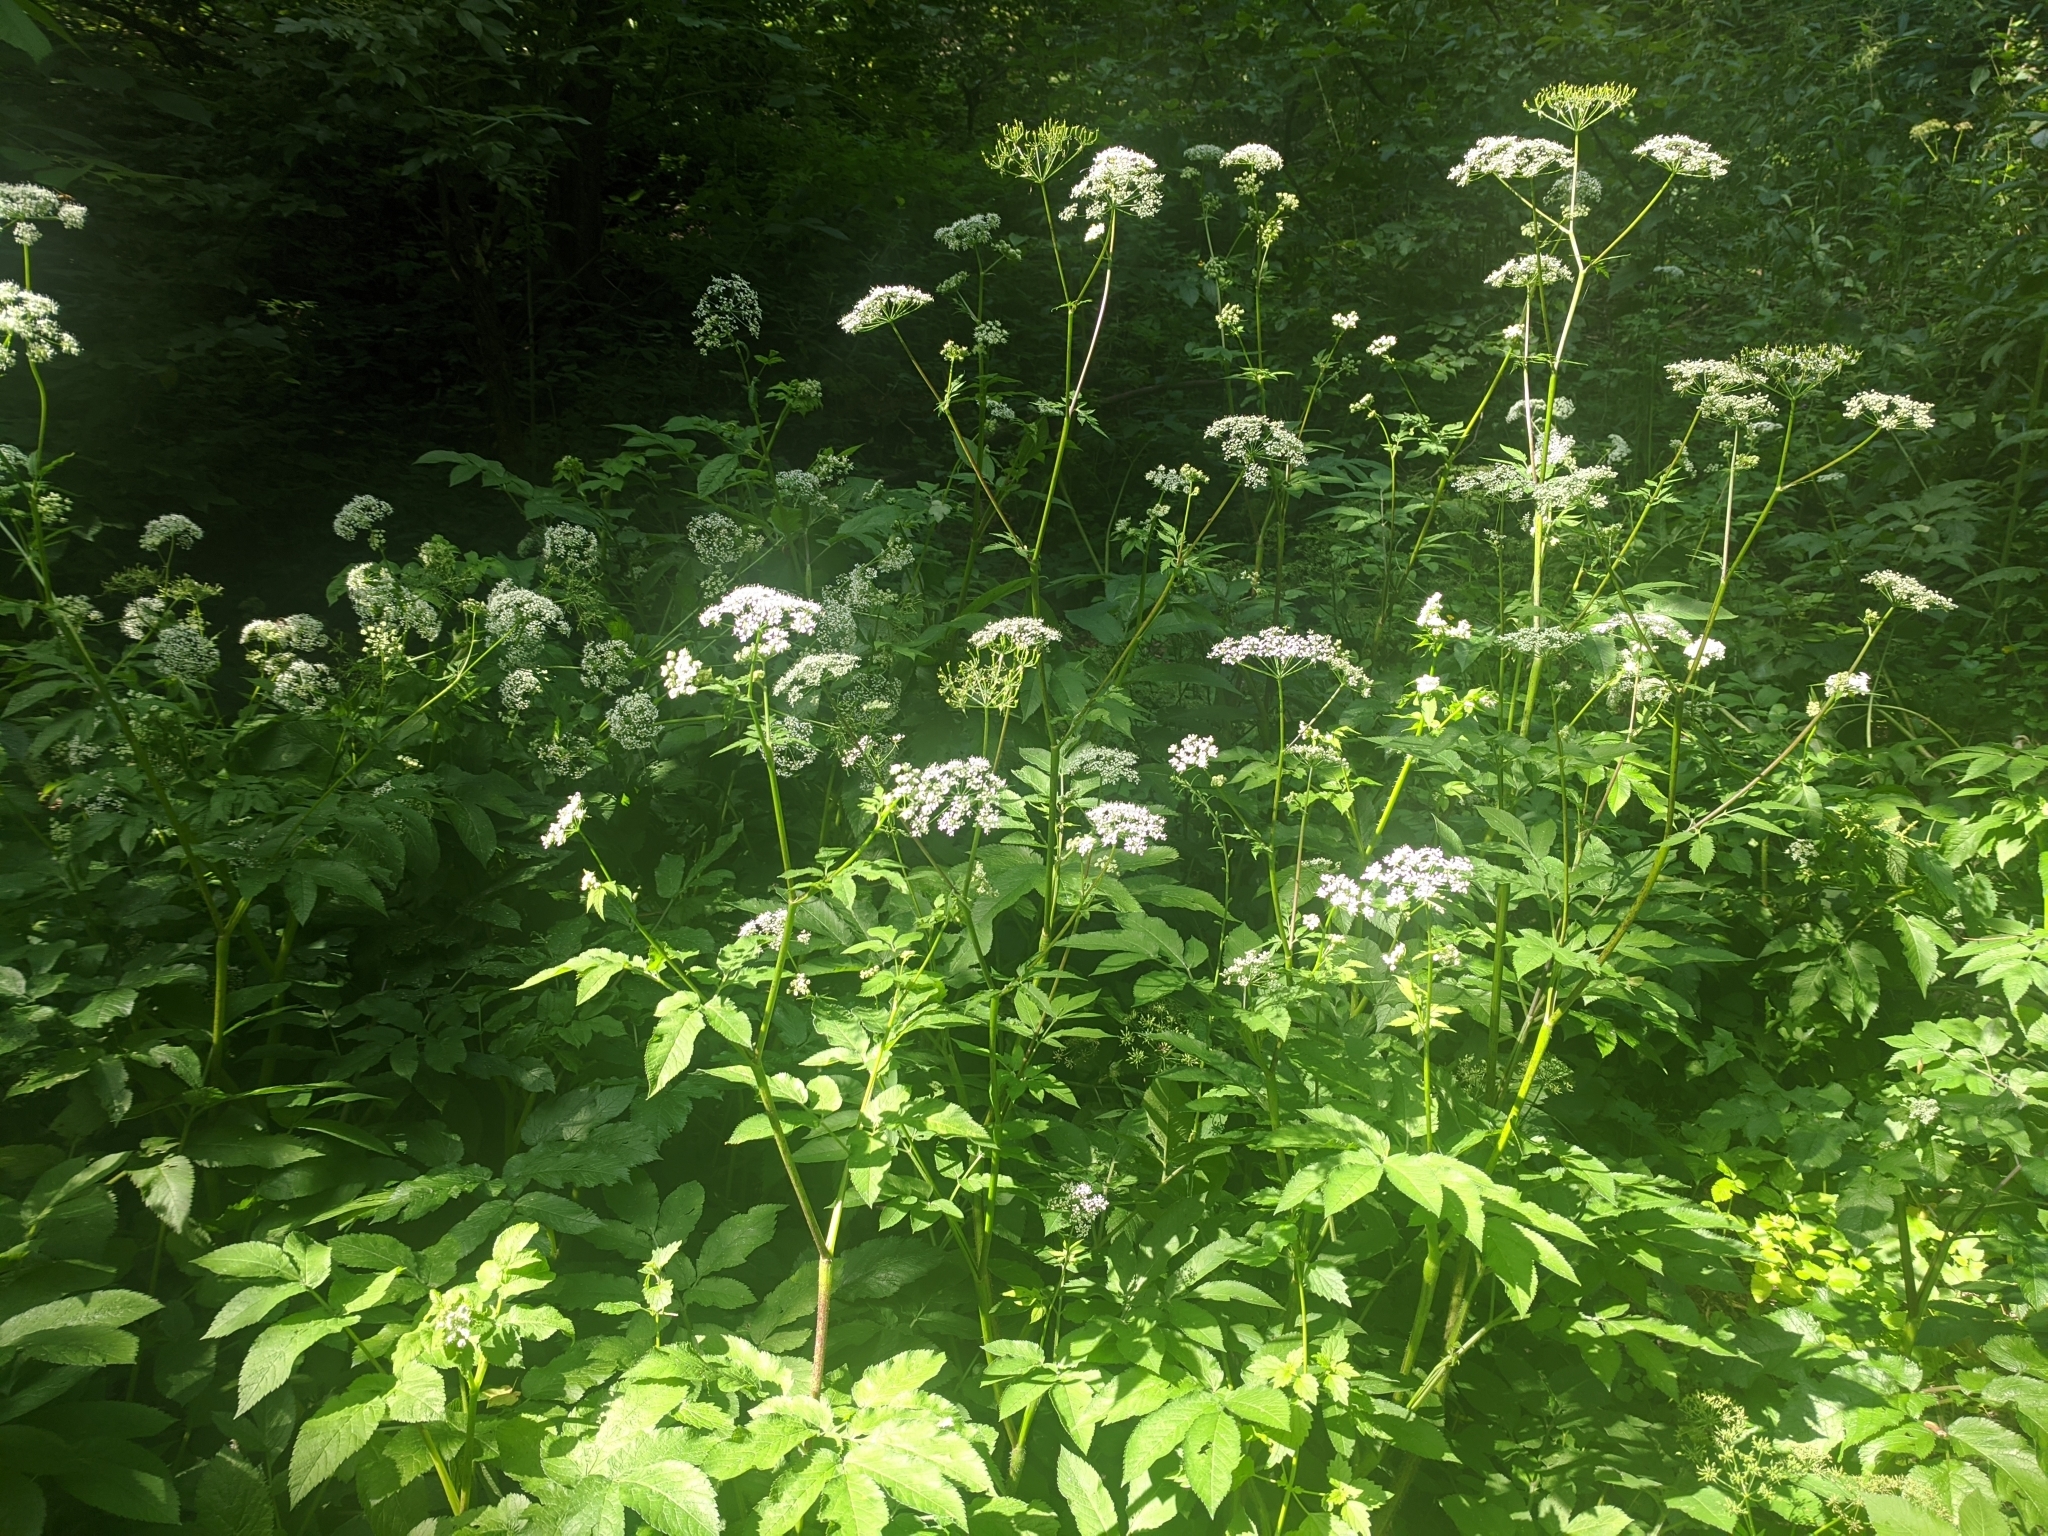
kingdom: Plantae
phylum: Tracheophyta
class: Magnoliopsida
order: Apiales
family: Apiaceae
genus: Aegopodium
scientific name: Aegopodium podagraria
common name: Ground-elder
